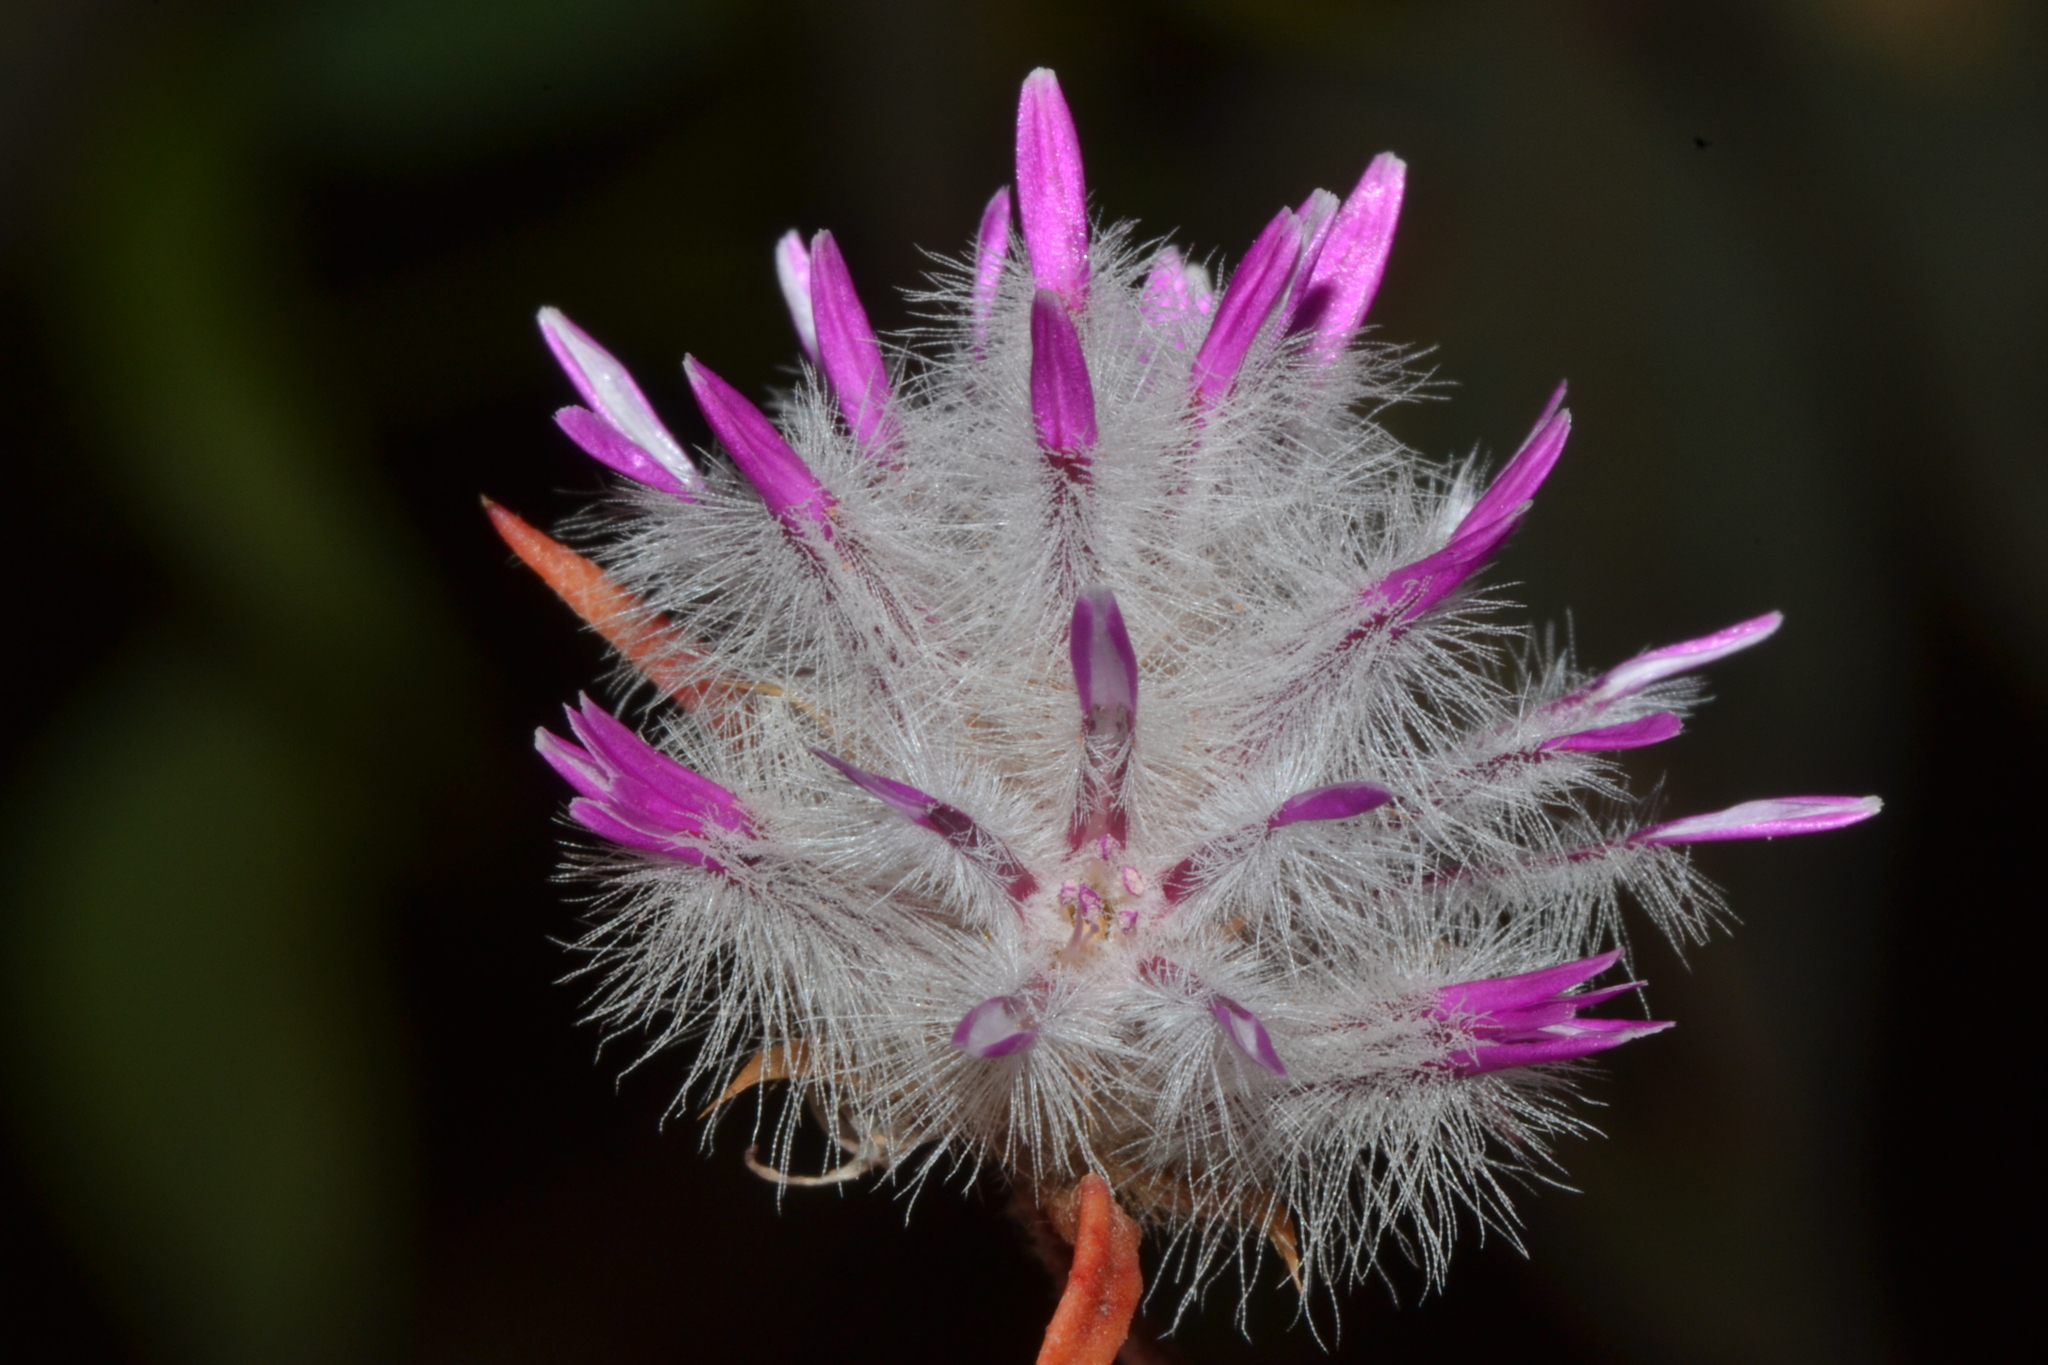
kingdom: Plantae
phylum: Tracheophyta
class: Magnoliopsida
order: Caryophyllales
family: Amaranthaceae
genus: Ptilotus
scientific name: Ptilotus davisii
